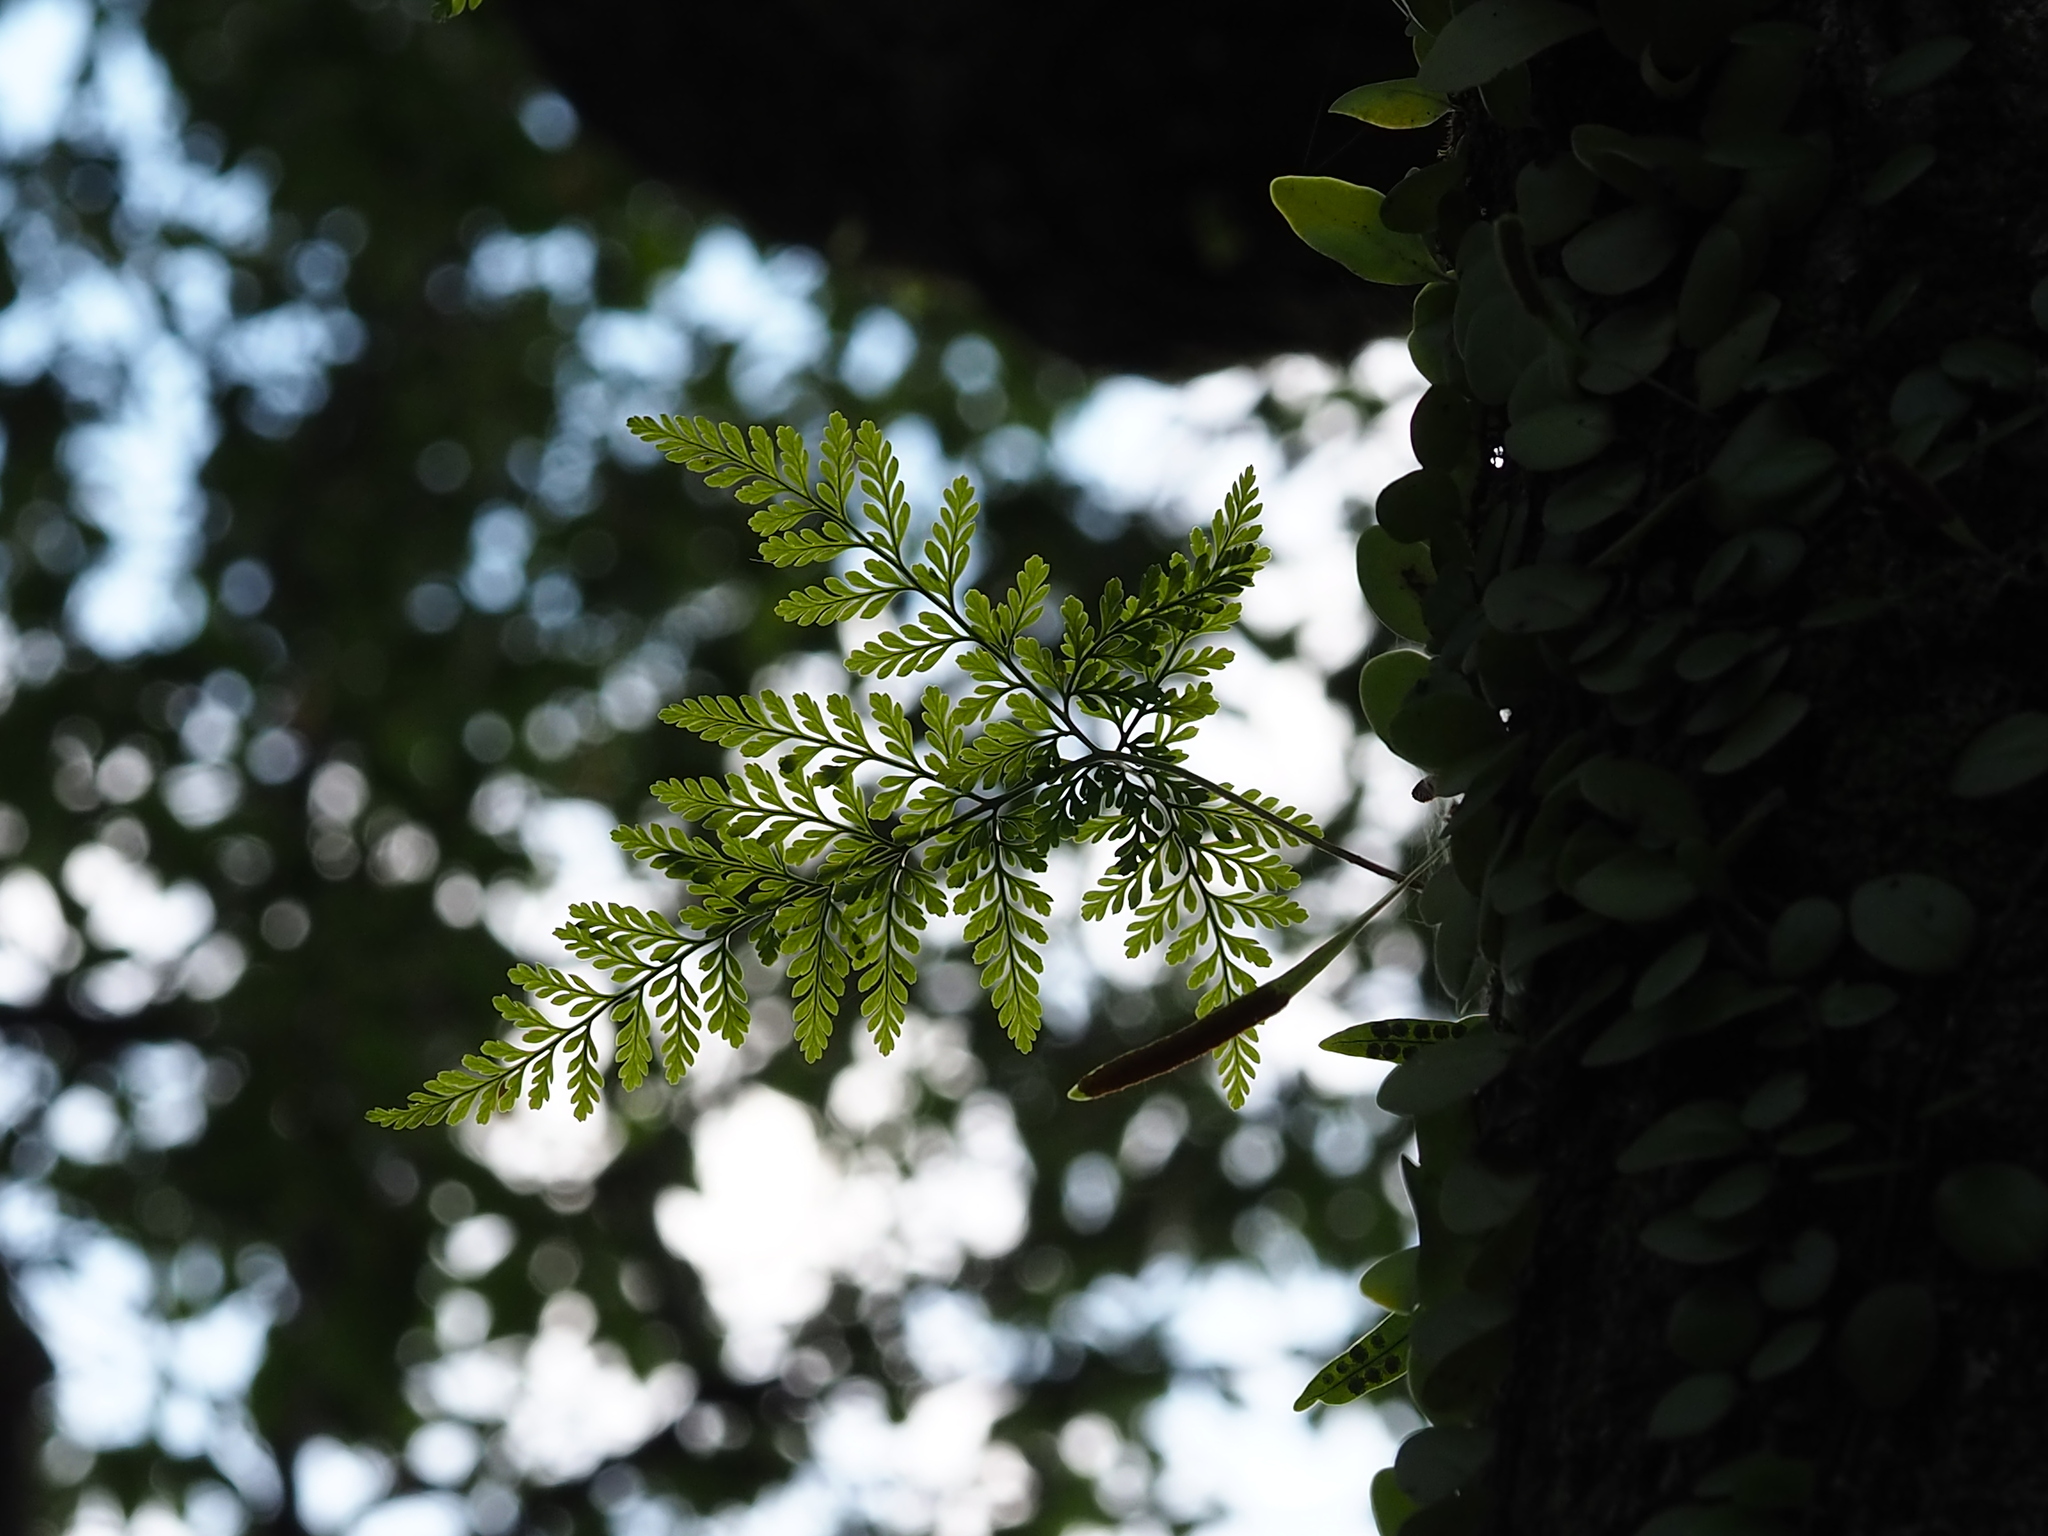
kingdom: Plantae
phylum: Tracheophyta
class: Polypodiopsida
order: Polypodiales
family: Davalliaceae
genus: Davallia
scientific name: Davallia griffithiana
